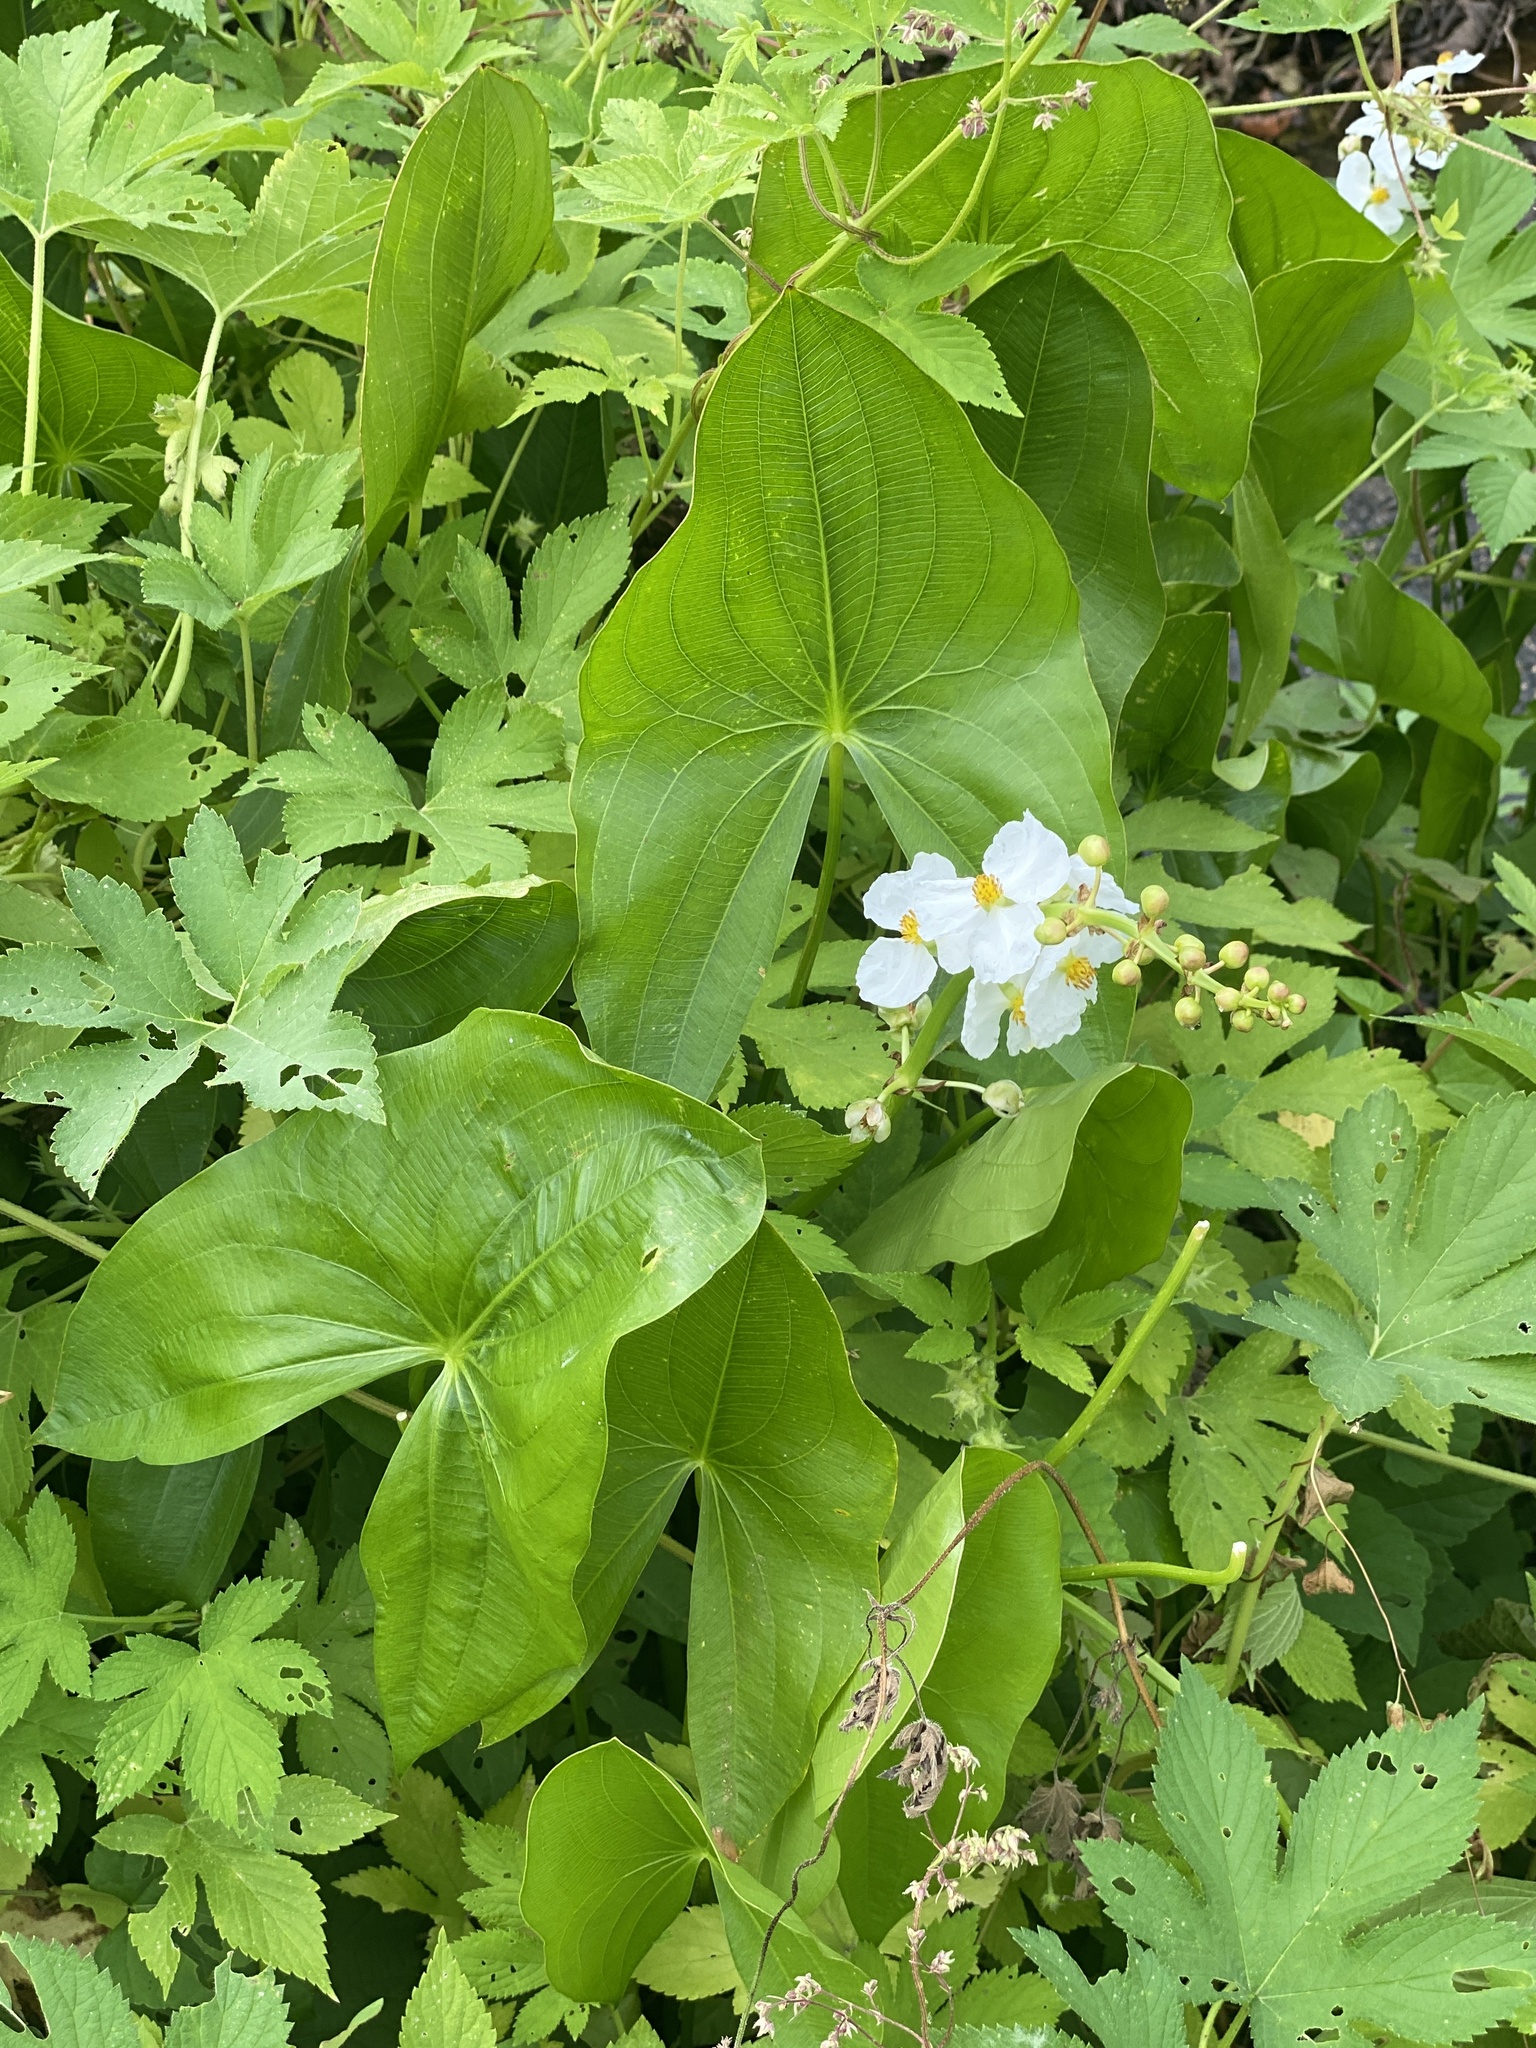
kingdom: Plantae
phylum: Tracheophyta
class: Liliopsida
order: Alismatales
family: Alismataceae
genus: Sagittaria
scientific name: Sagittaria latifolia
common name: Duck-potato
